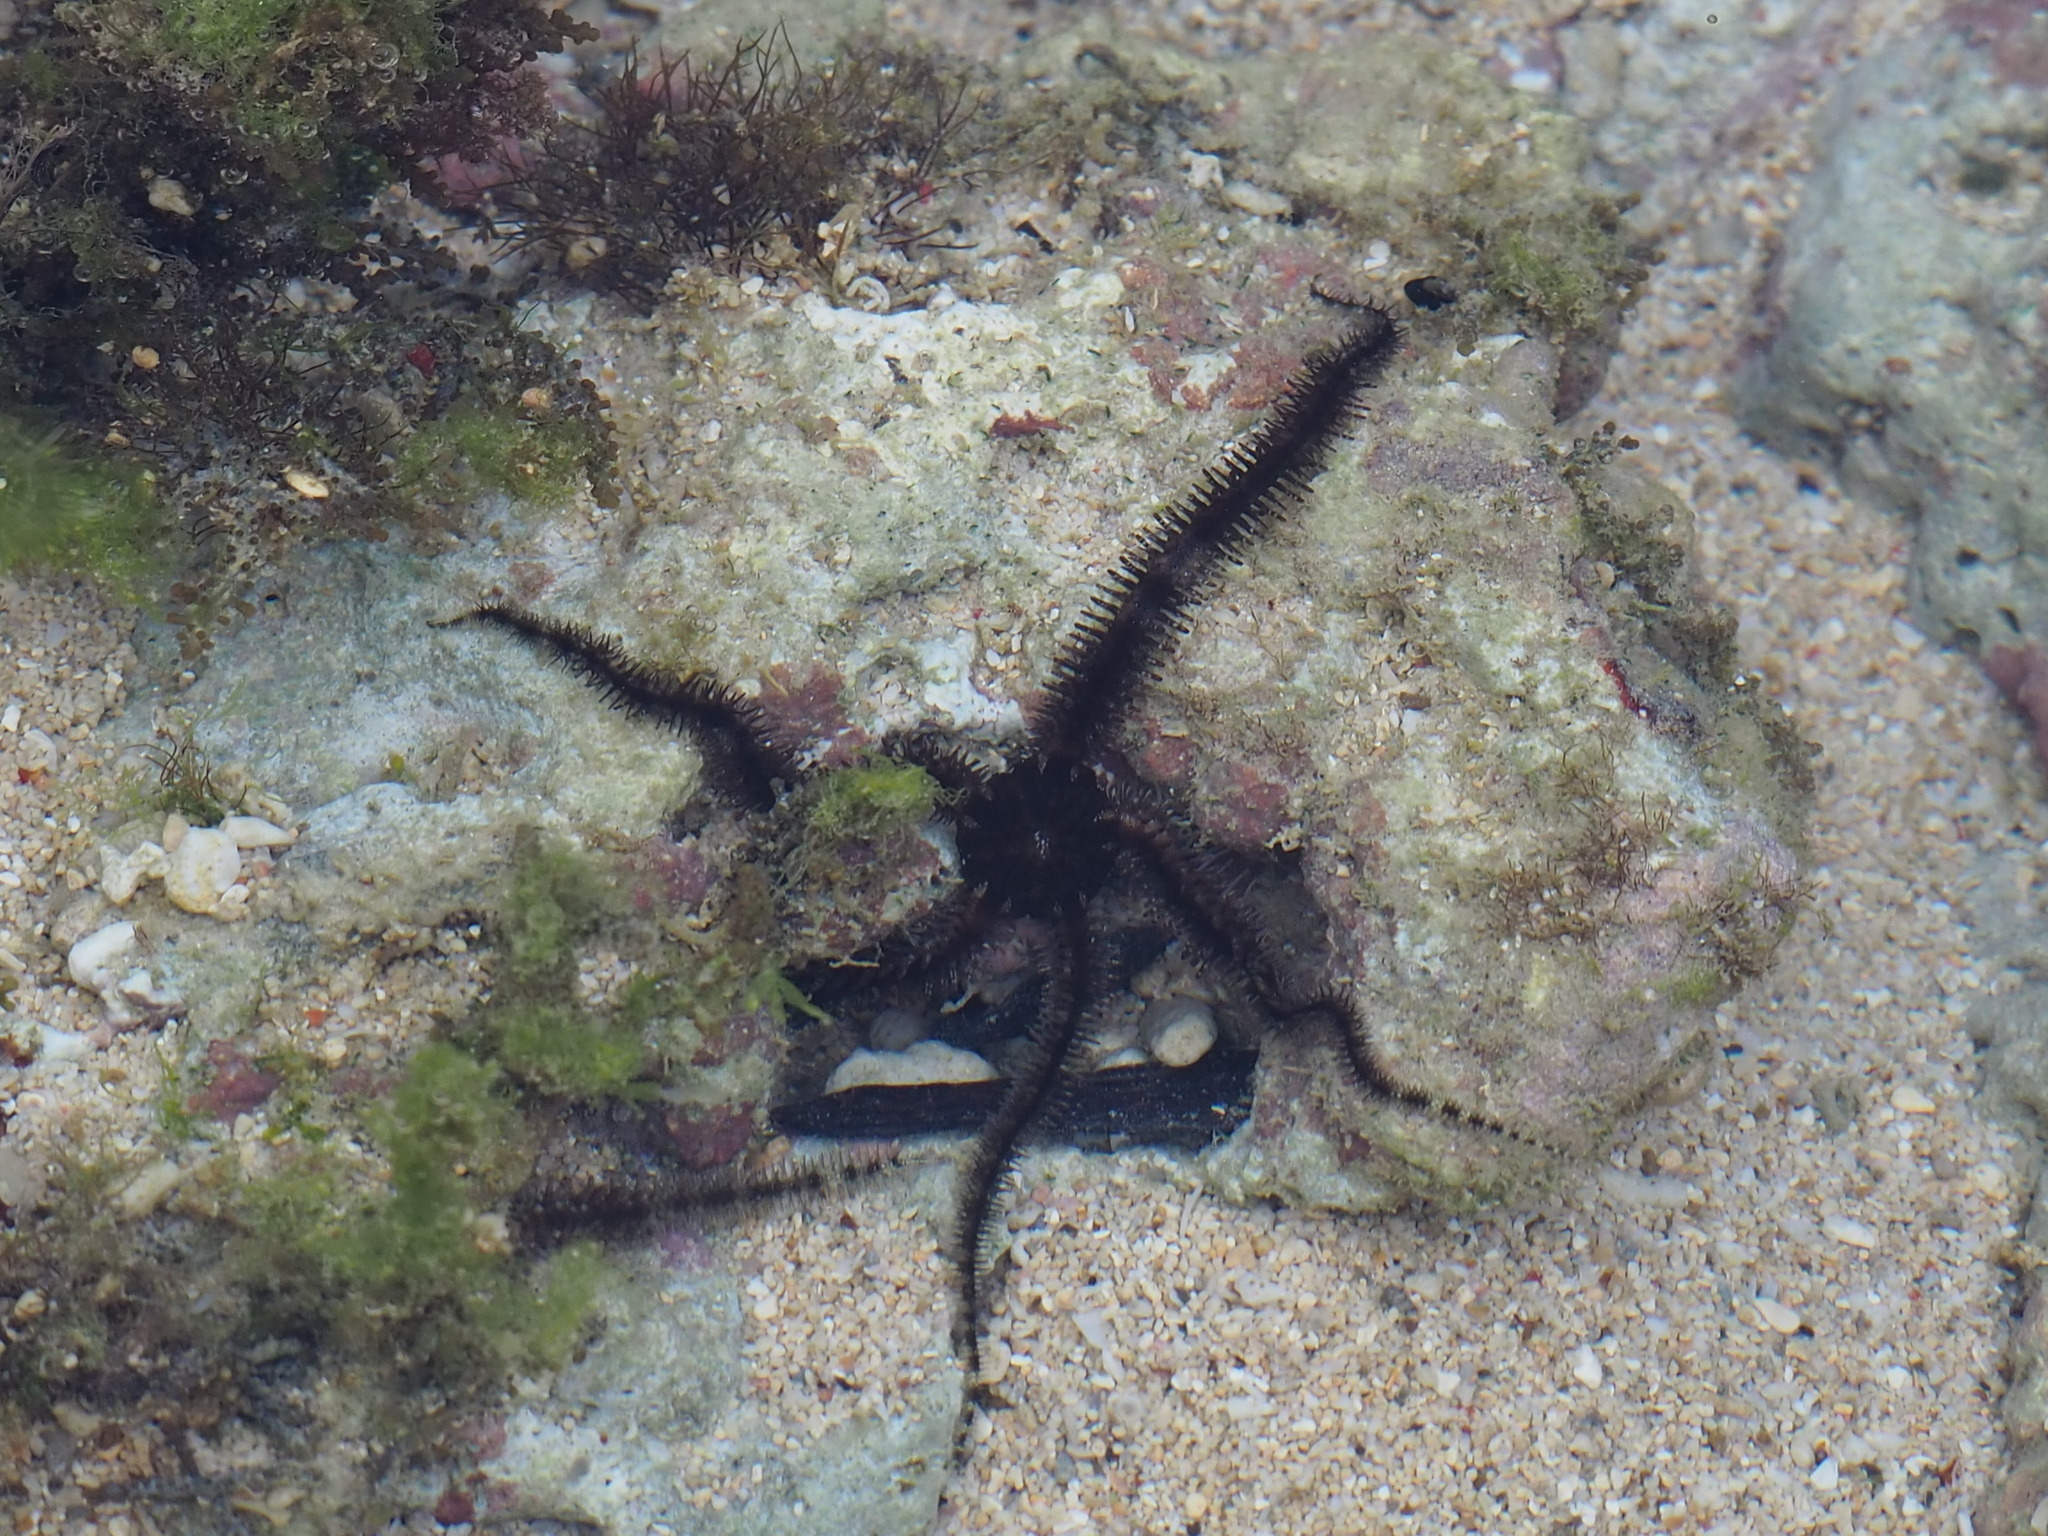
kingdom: Animalia
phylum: Echinodermata
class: Ophiuroidea
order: Ophiacanthida
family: Ophiocomidae
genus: Ophiocoma
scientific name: Ophiocoma scolopendrina
